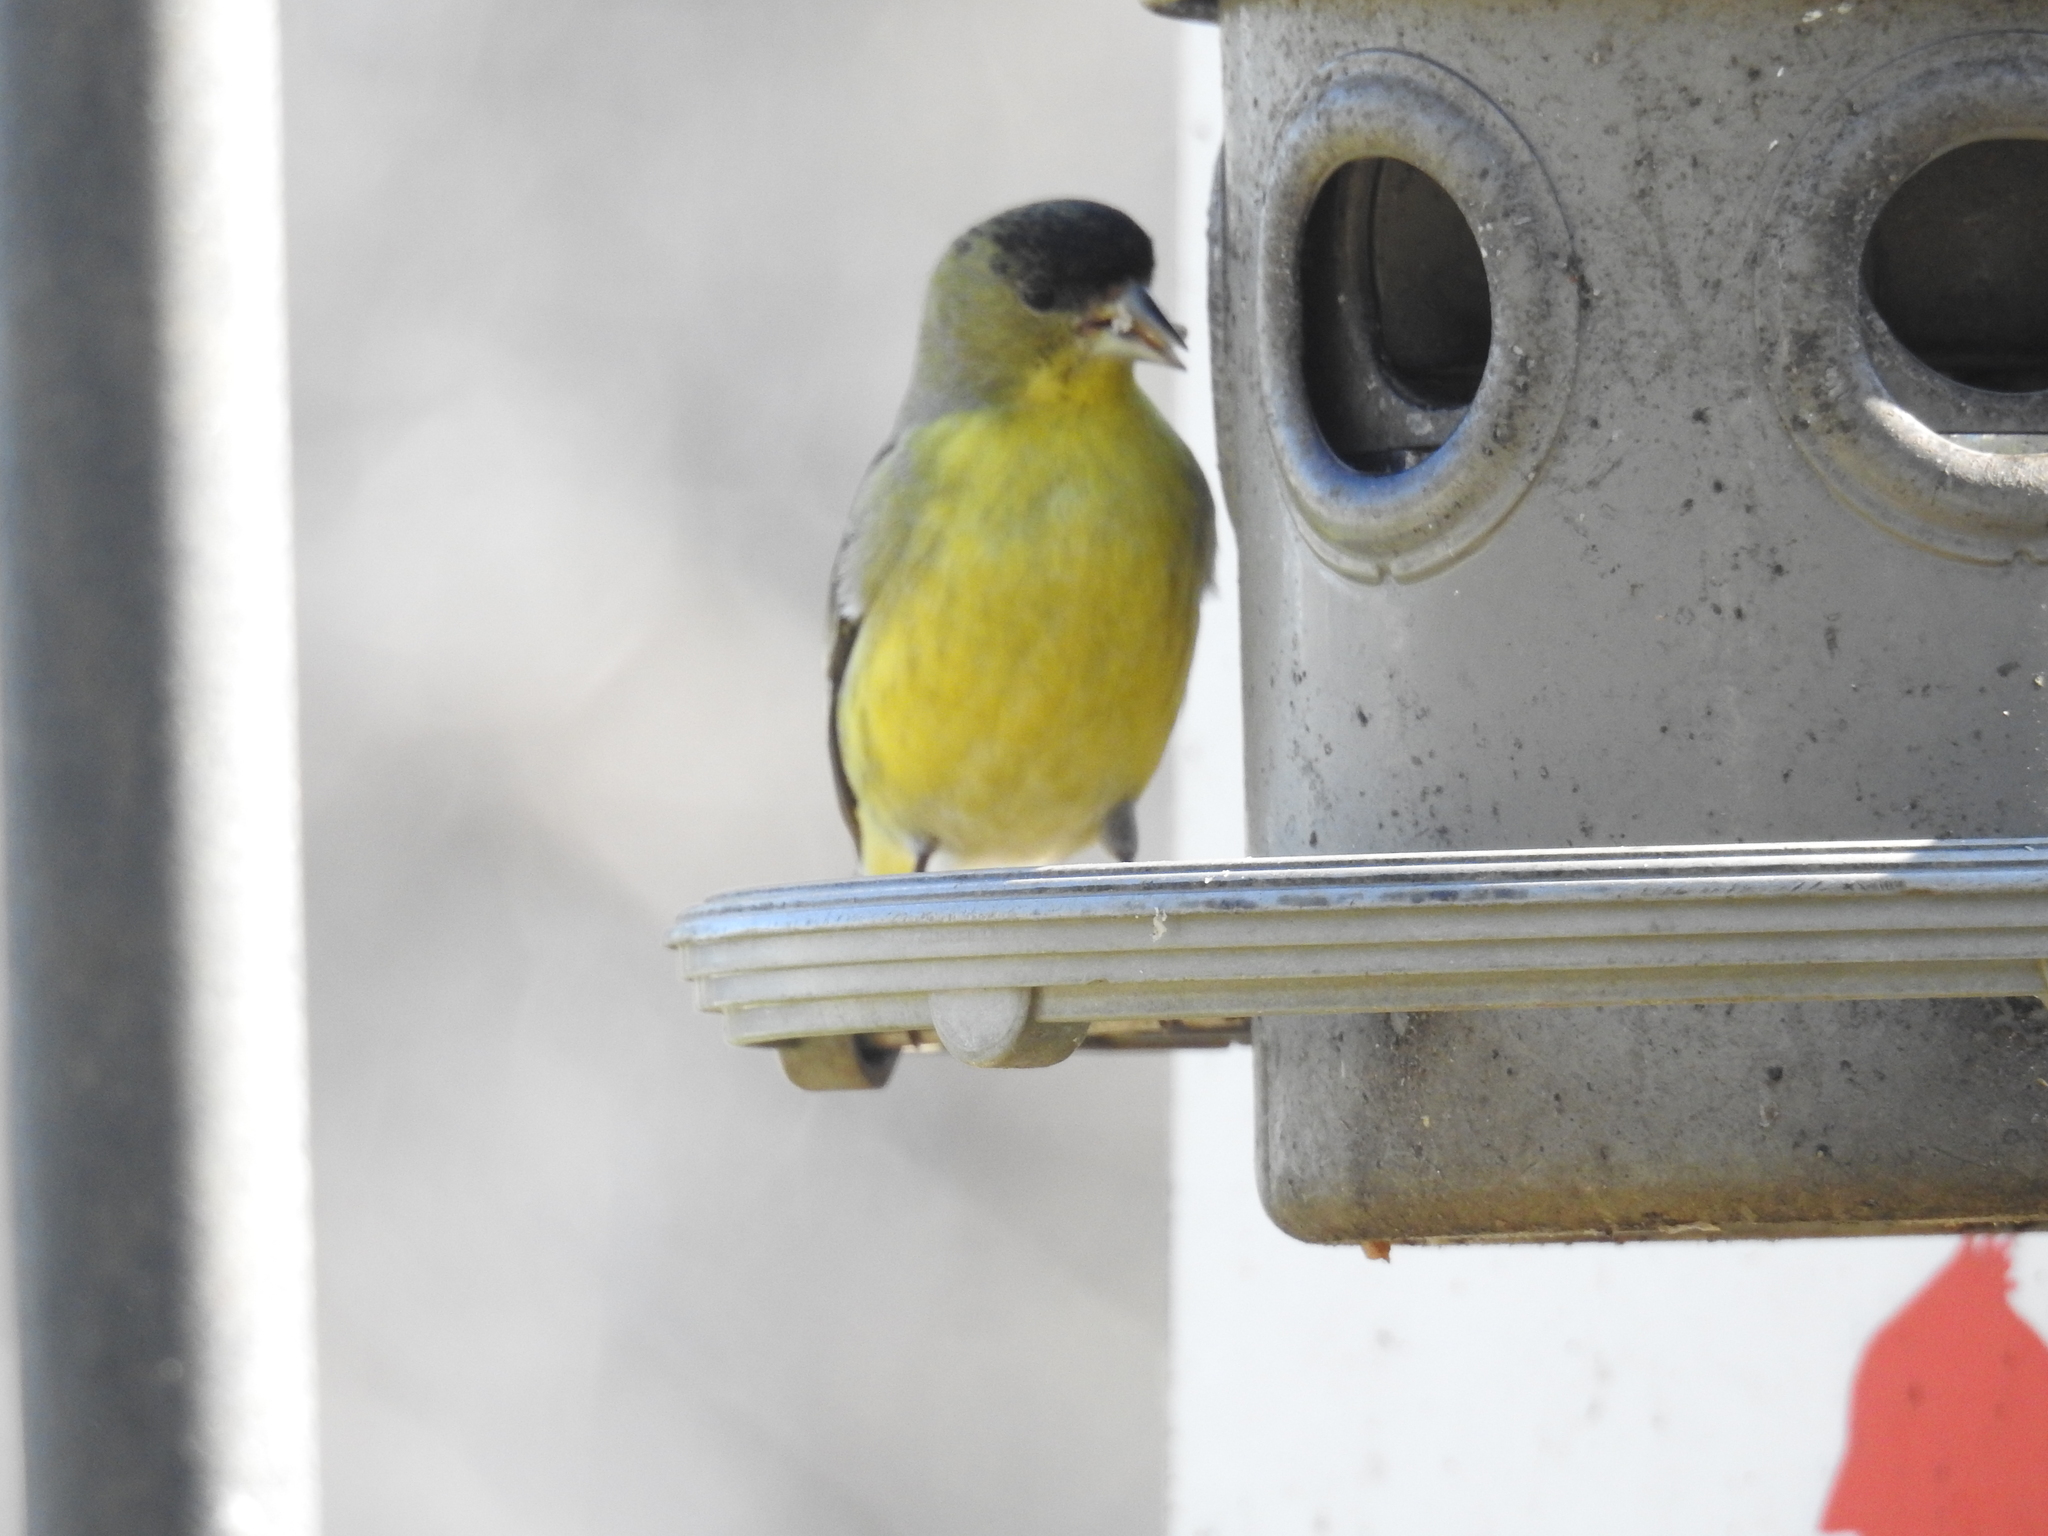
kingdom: Animalia
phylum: Chordata
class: Aves
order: Passeriformes
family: Fringillidae
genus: Spinus
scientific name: Spinus psaltria
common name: Lesser goldfinch
